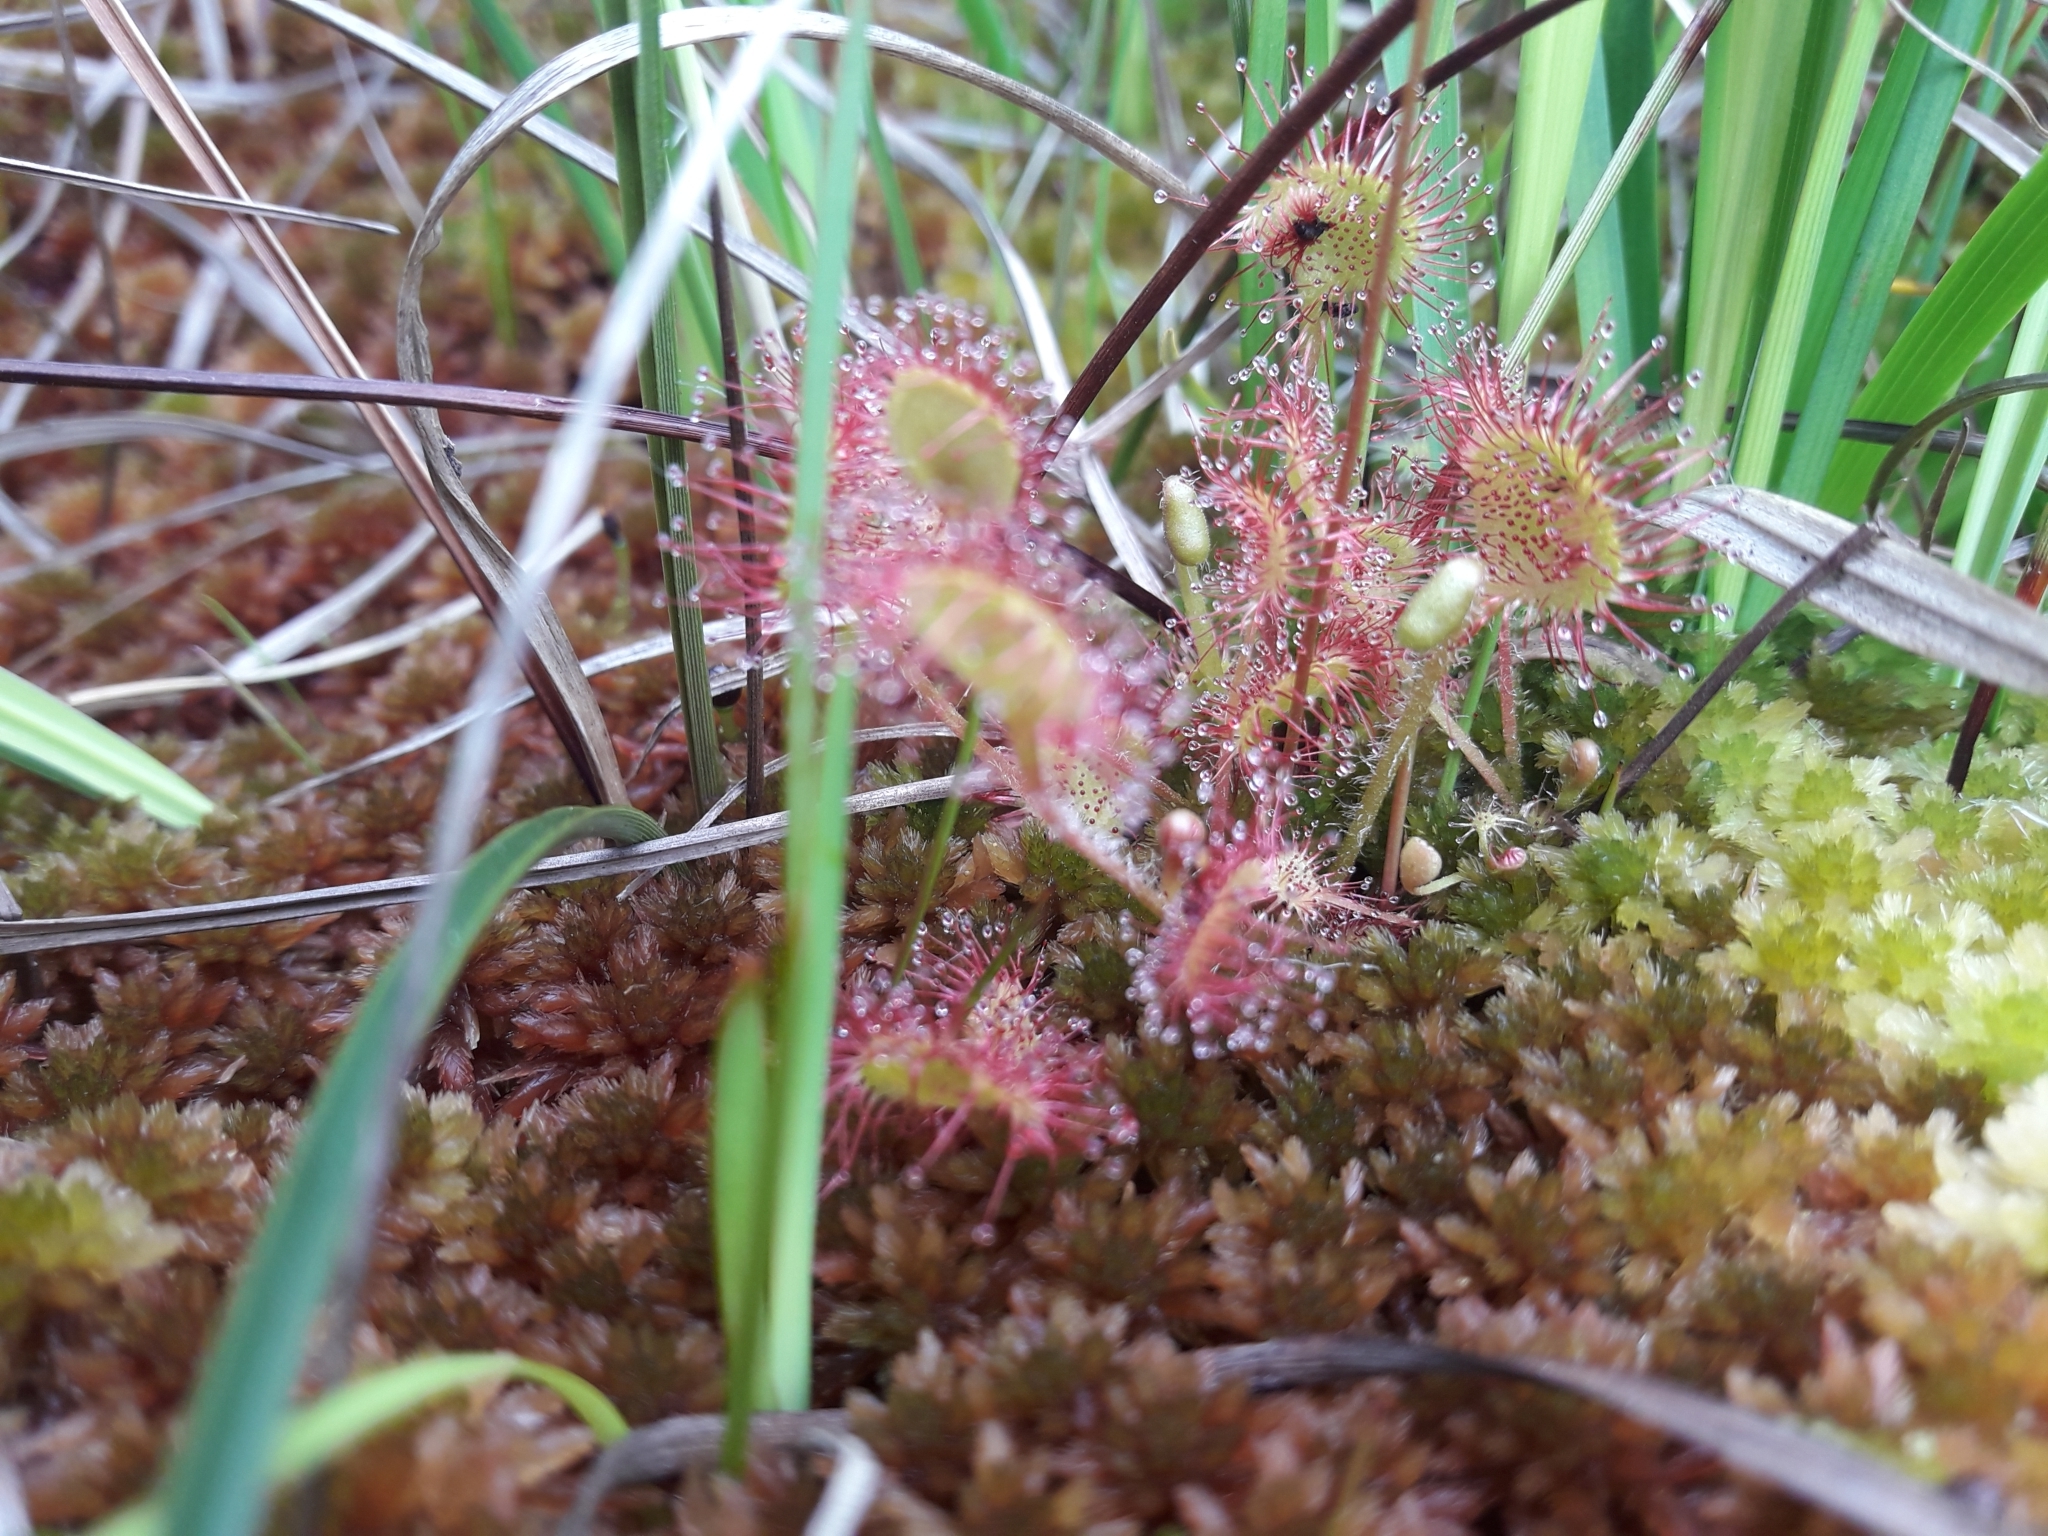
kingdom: Plantae
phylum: Tracheophyta
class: Magnoliopsida
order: Caryophyllales
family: Droseraceae
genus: Drosera
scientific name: Drosera rotundifolia
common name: Round-leaved sundew
